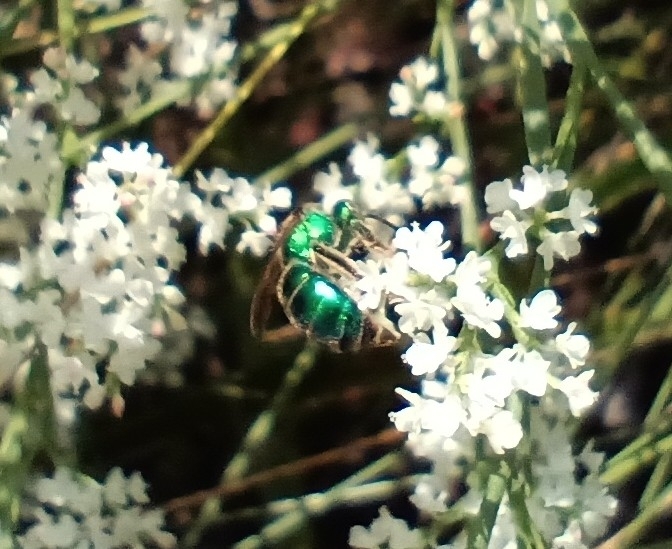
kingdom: Animalia
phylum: Arthropoda
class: Insecta
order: Hymenoptera
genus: Paraugochloropsis
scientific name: Paraugochloropsis
